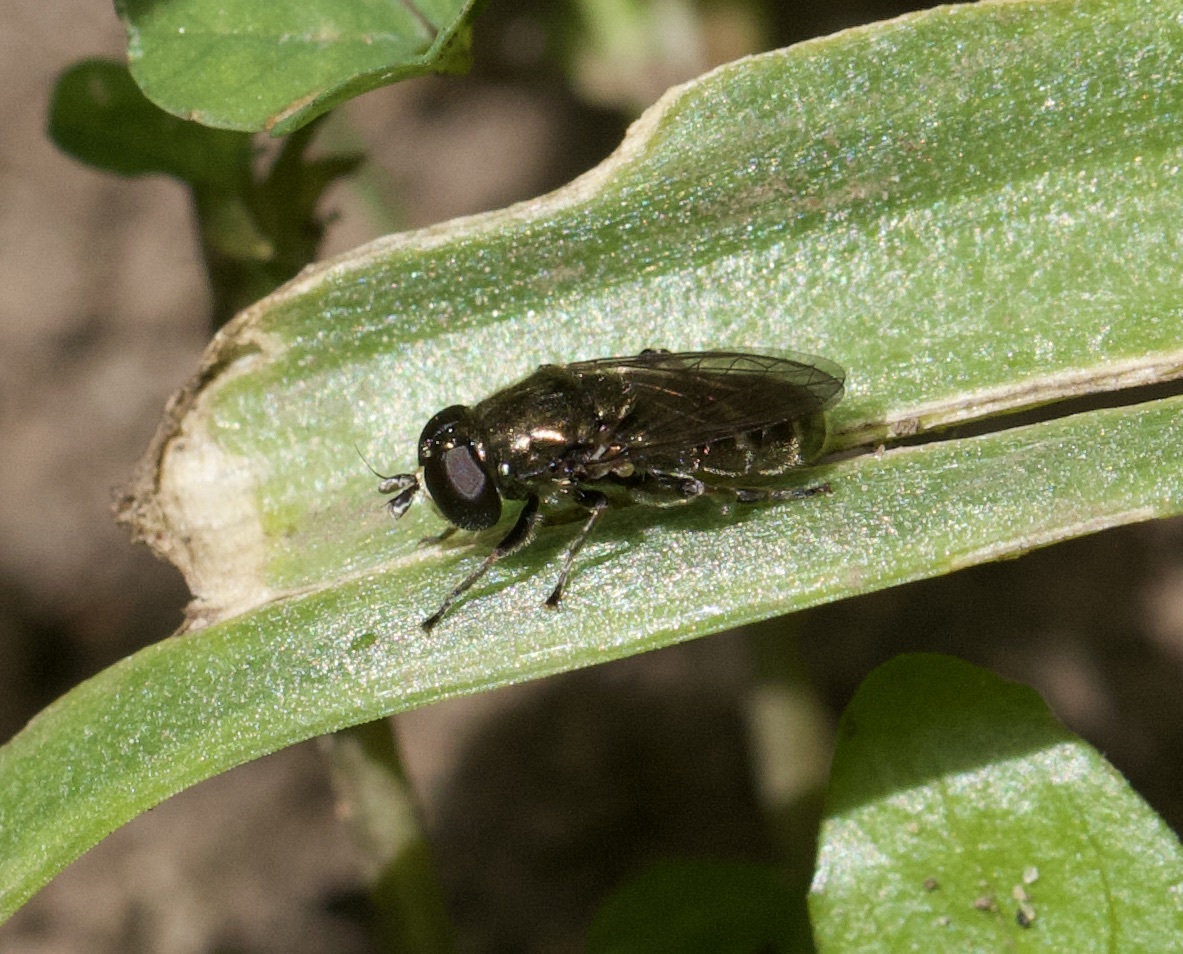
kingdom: Animalia
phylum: Arthropoda
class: Insecta
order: Diptera
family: Syrphidae
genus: Eumerus
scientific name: Eumerus
